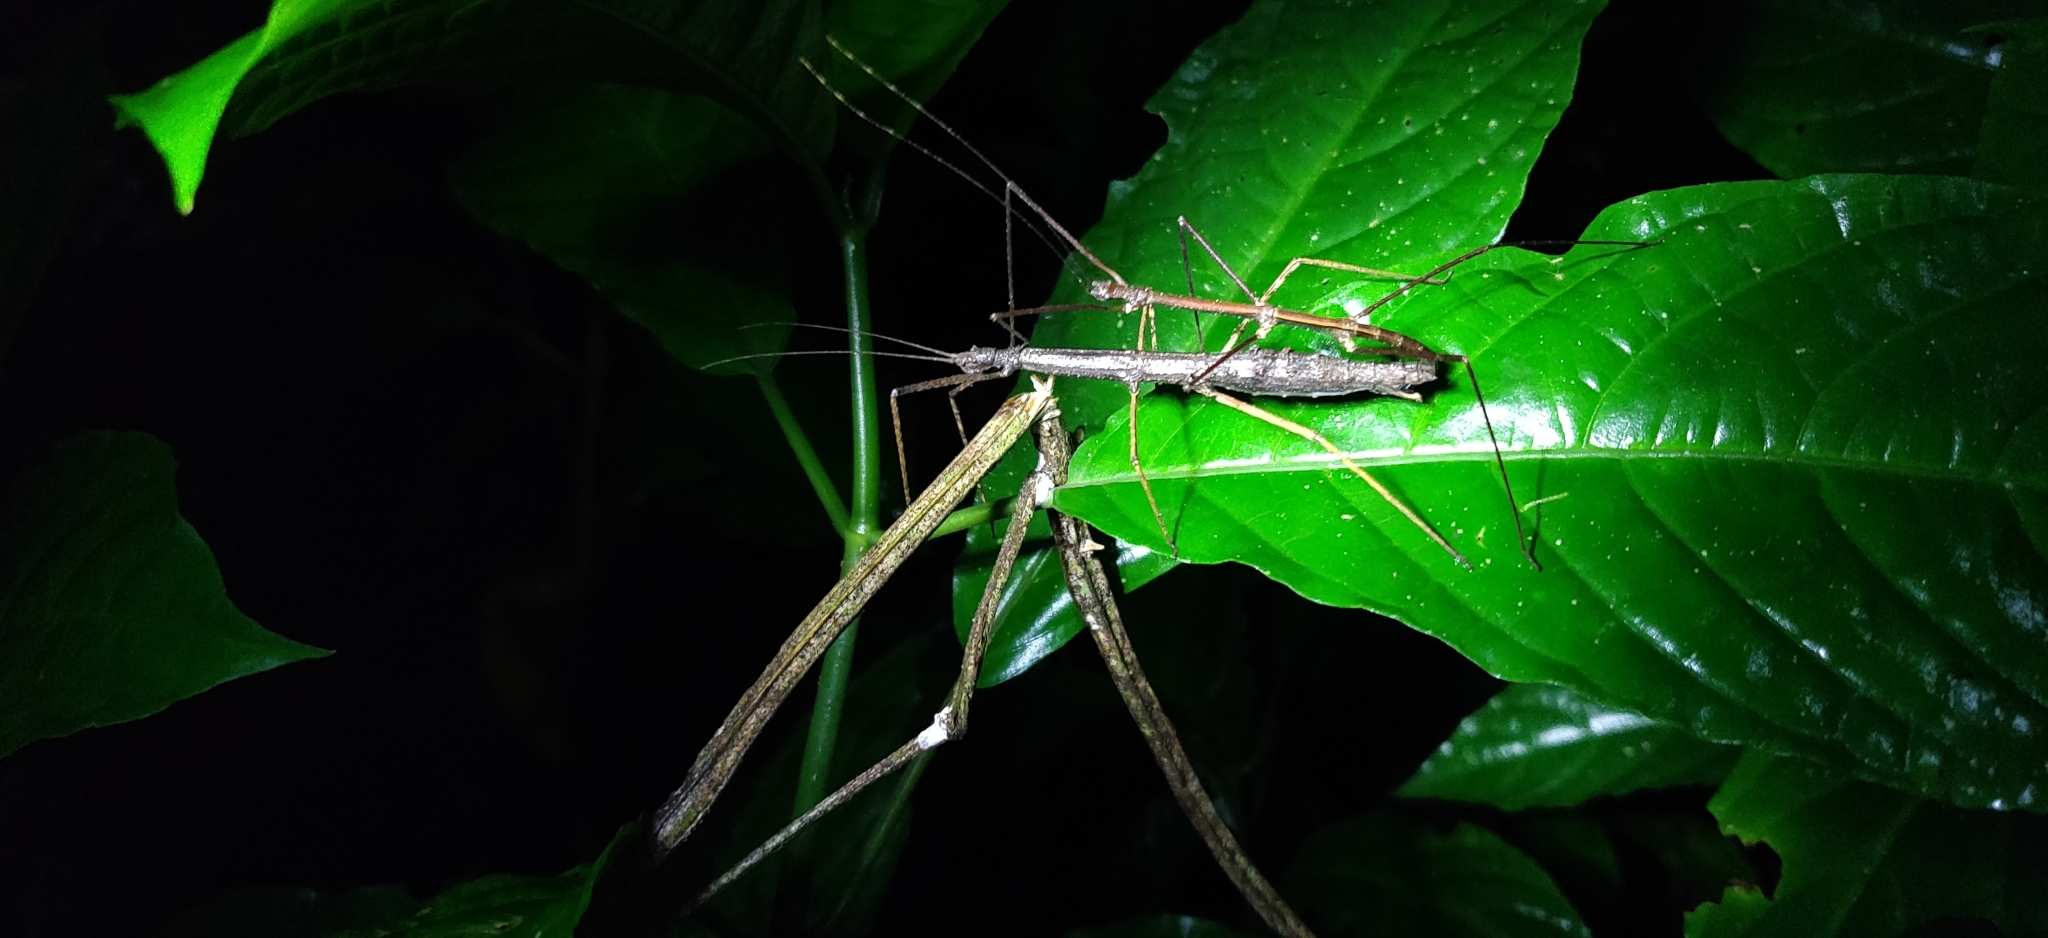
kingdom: Animalia
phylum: Arthropoda
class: Insecta
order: Phasmida
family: Diapheromeridae
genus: Ocnophiloidea
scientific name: Ocnophiloidea regularis
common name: Trinidad twig
